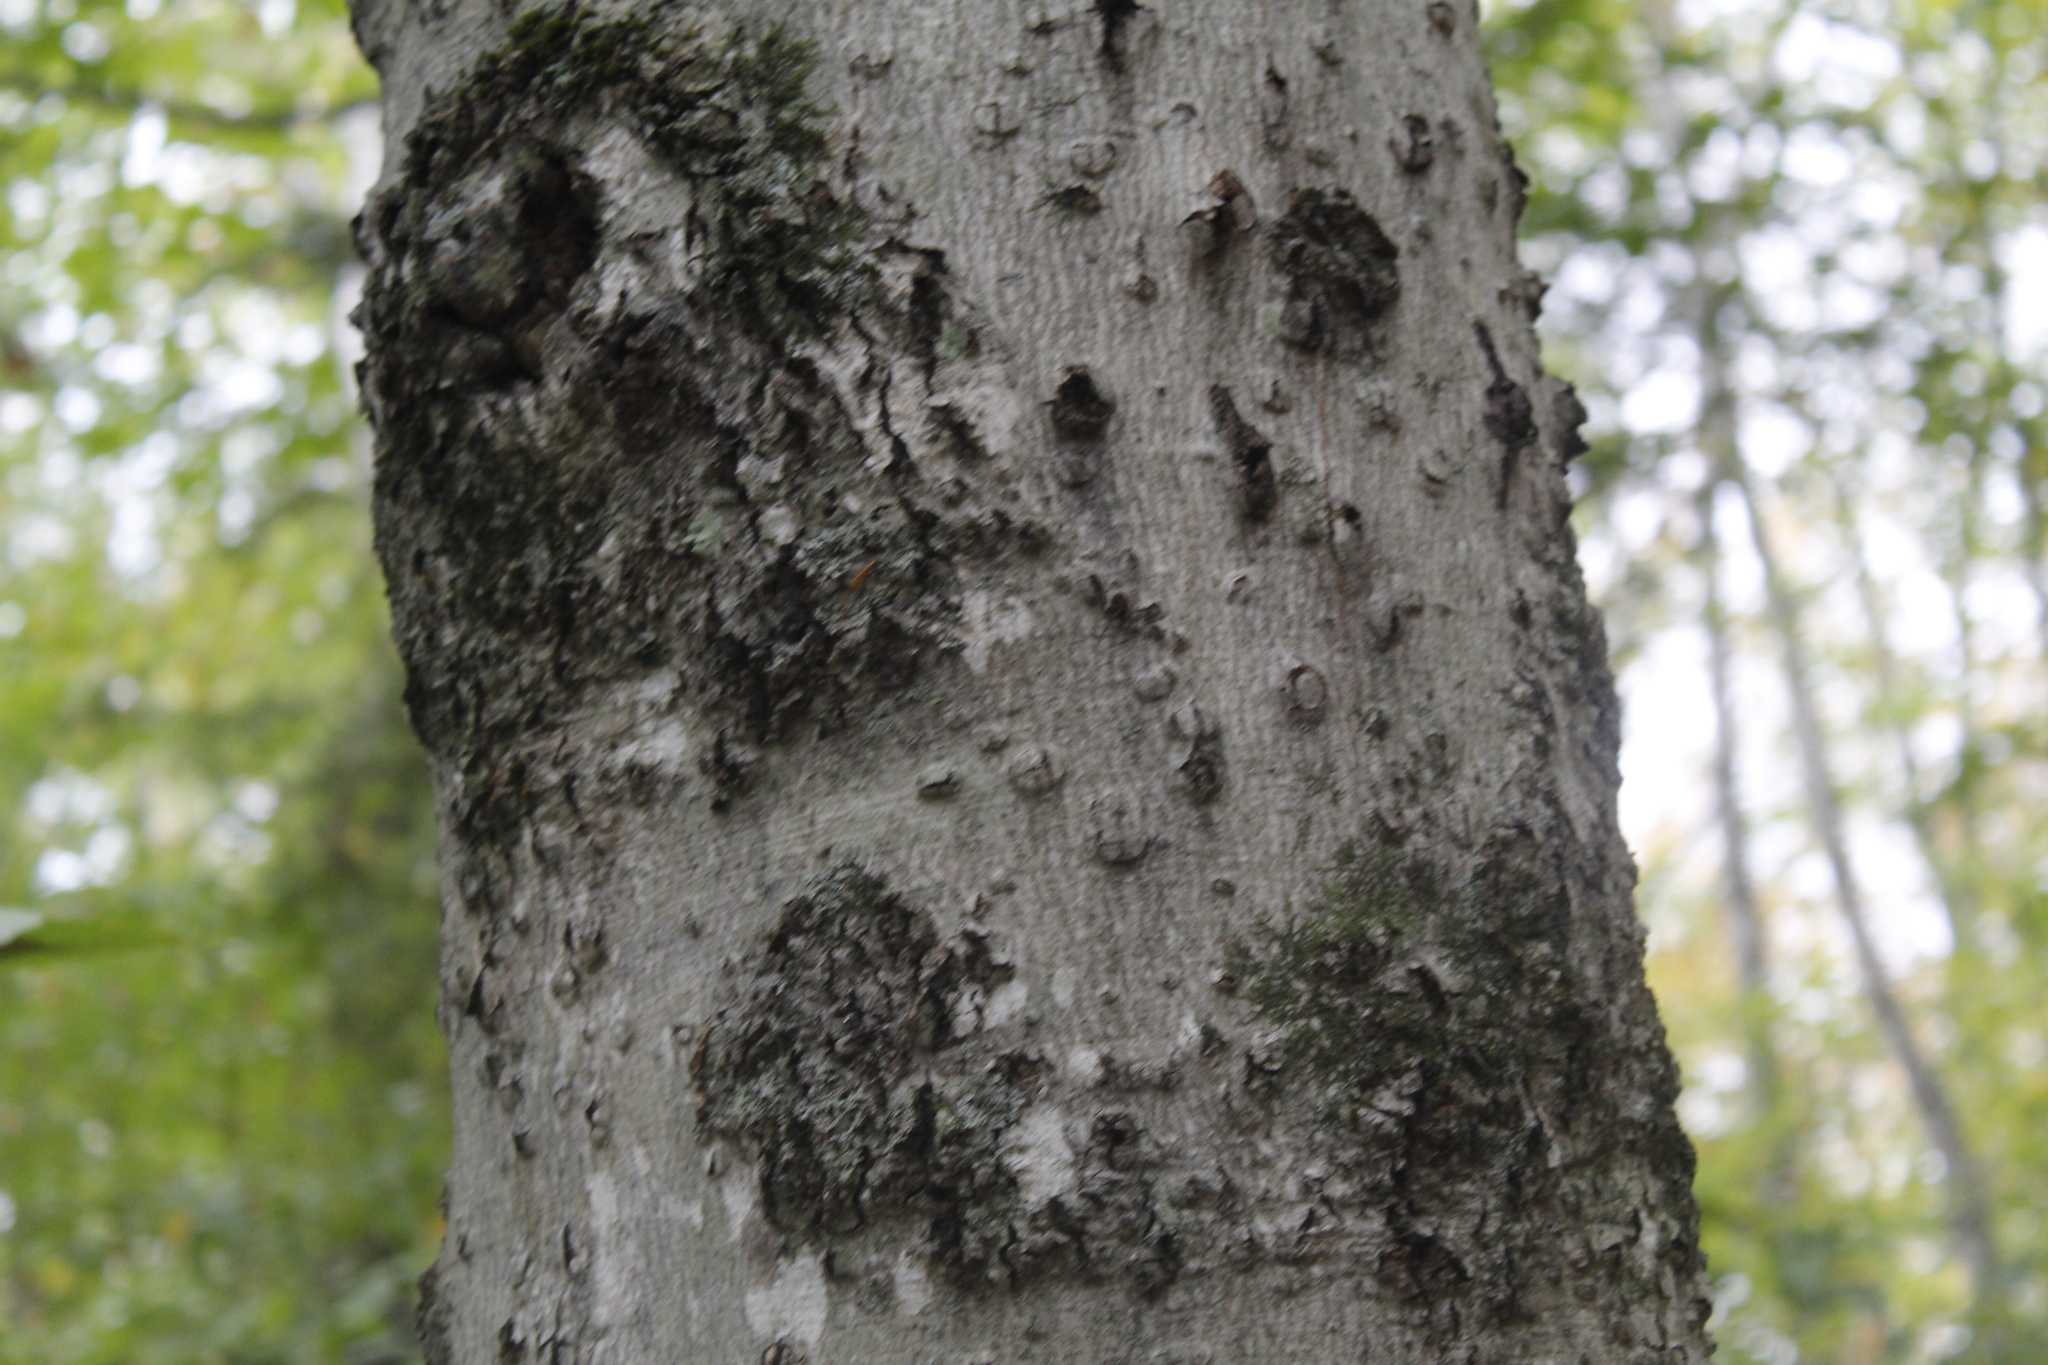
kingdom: Plantae
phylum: Tracheophyta
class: Magnoliopsida
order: Fagales
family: Fagaceae
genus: Fagus
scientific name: Fagus grandifolia
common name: American beech
